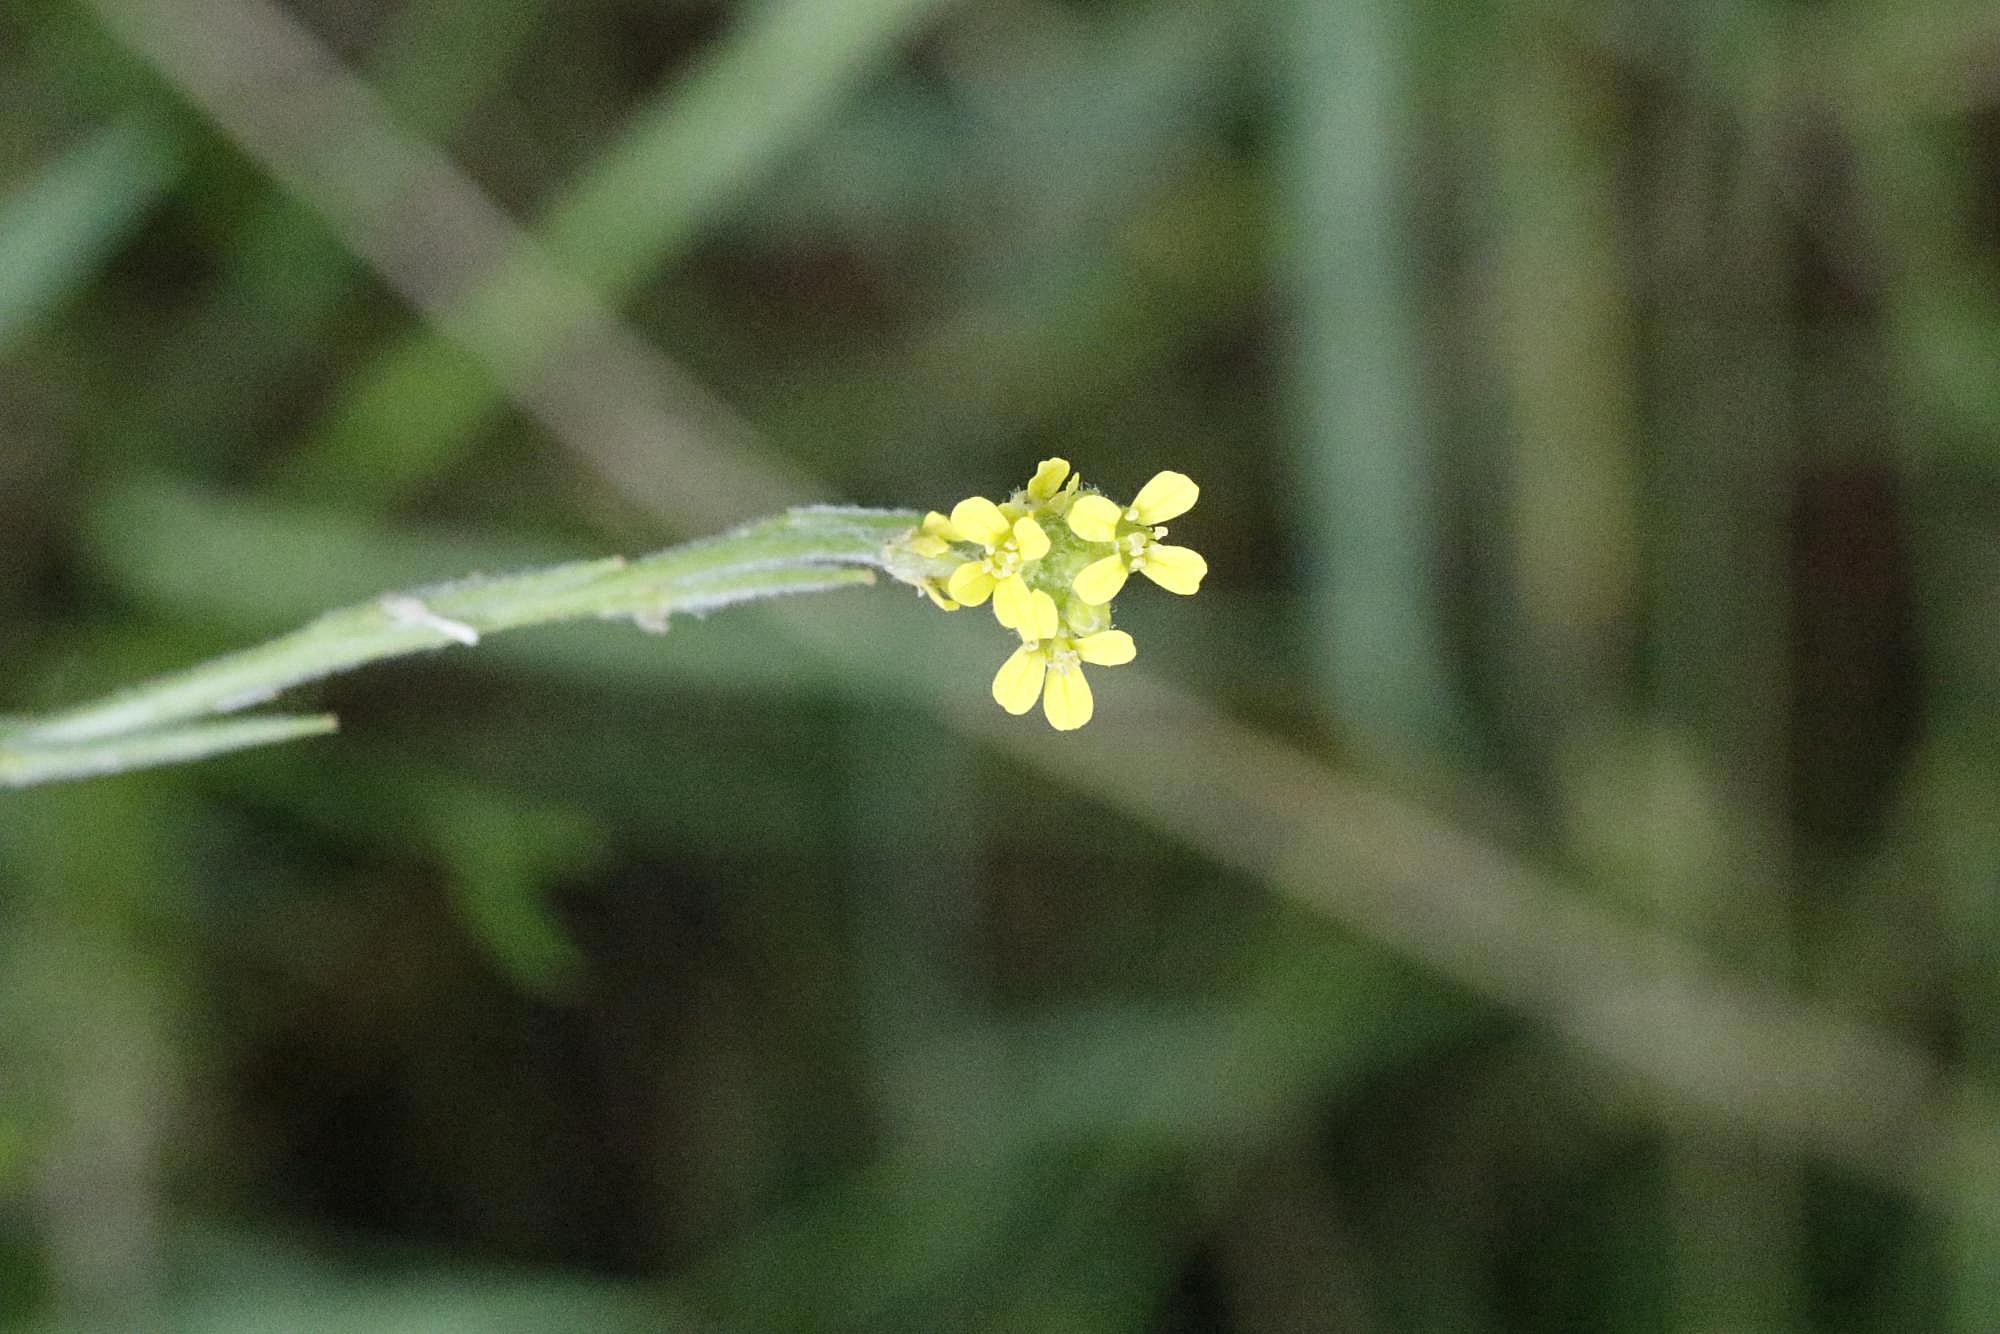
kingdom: Plantae
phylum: Tracheophyta
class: Magnoliopsida
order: Brassicales
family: Brassicaceae
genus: Sisymbrium
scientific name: Sisymbrium officinale
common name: Hedge mustard
